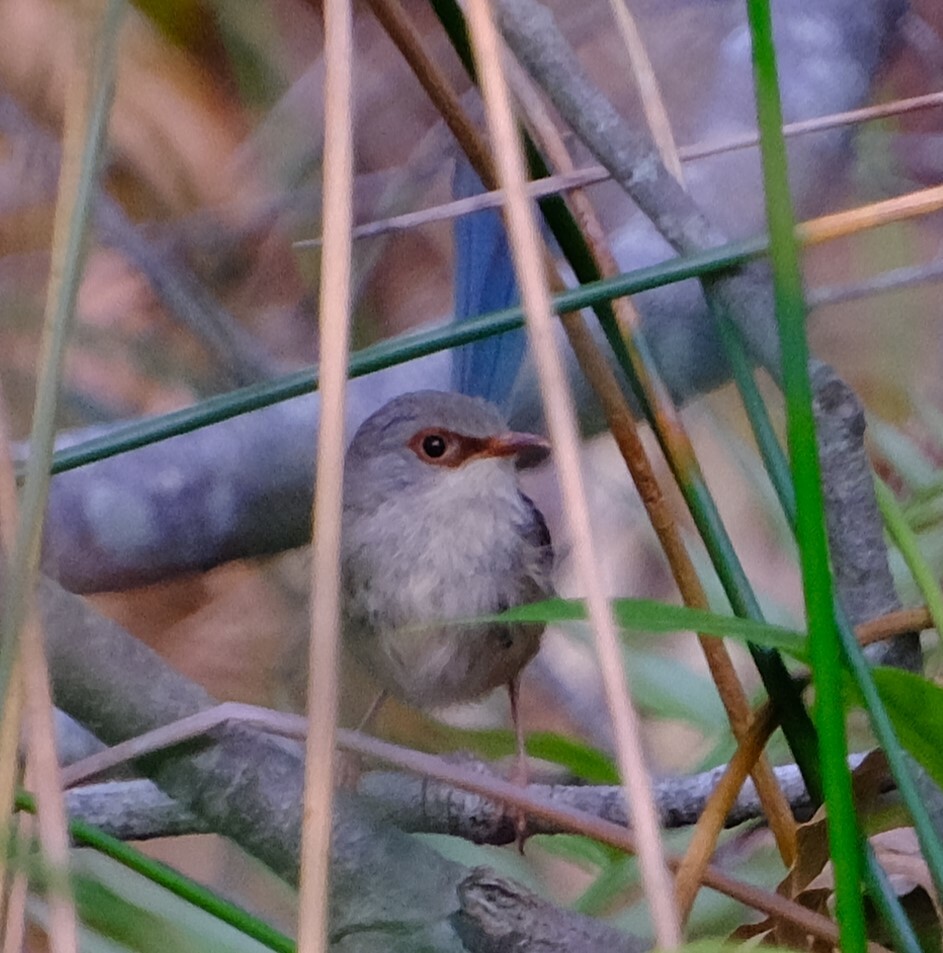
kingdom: Animalia
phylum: Chordata
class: Aves
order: Passeriformes
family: Maluridae
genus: Malurus
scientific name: Malurus lamberti
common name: Variegated fairywren
